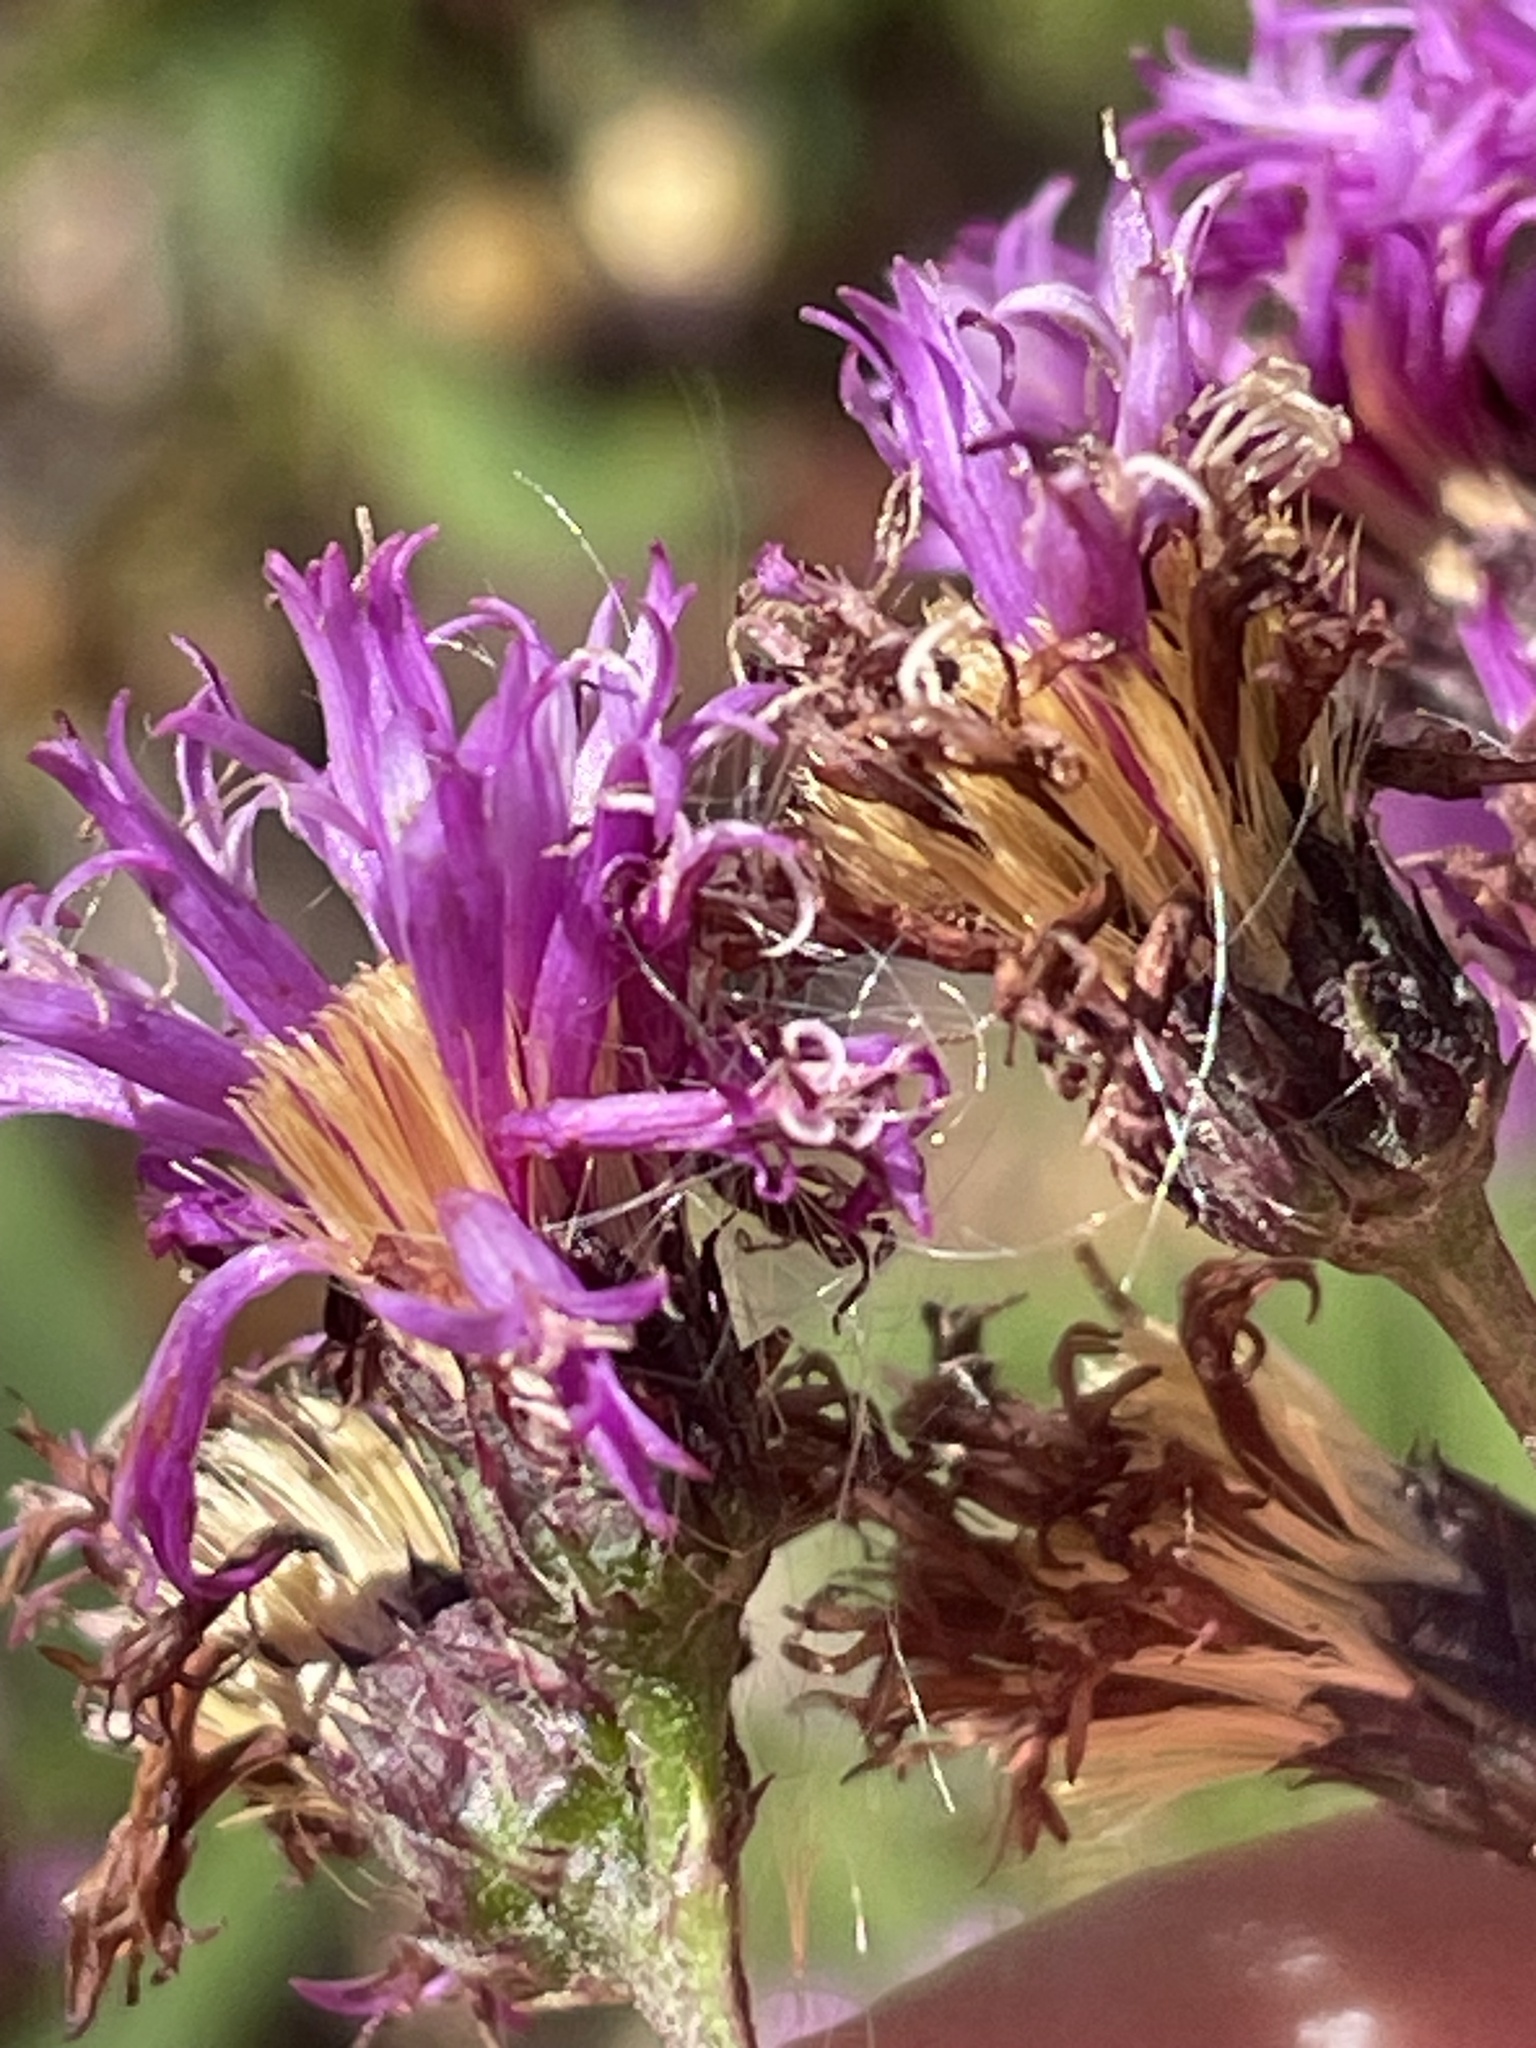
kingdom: Plantae
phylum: Tracheophyta
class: Magnoliopsida
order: Asterales
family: Asteraceae
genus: Vernonia
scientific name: Vernonia glauca
